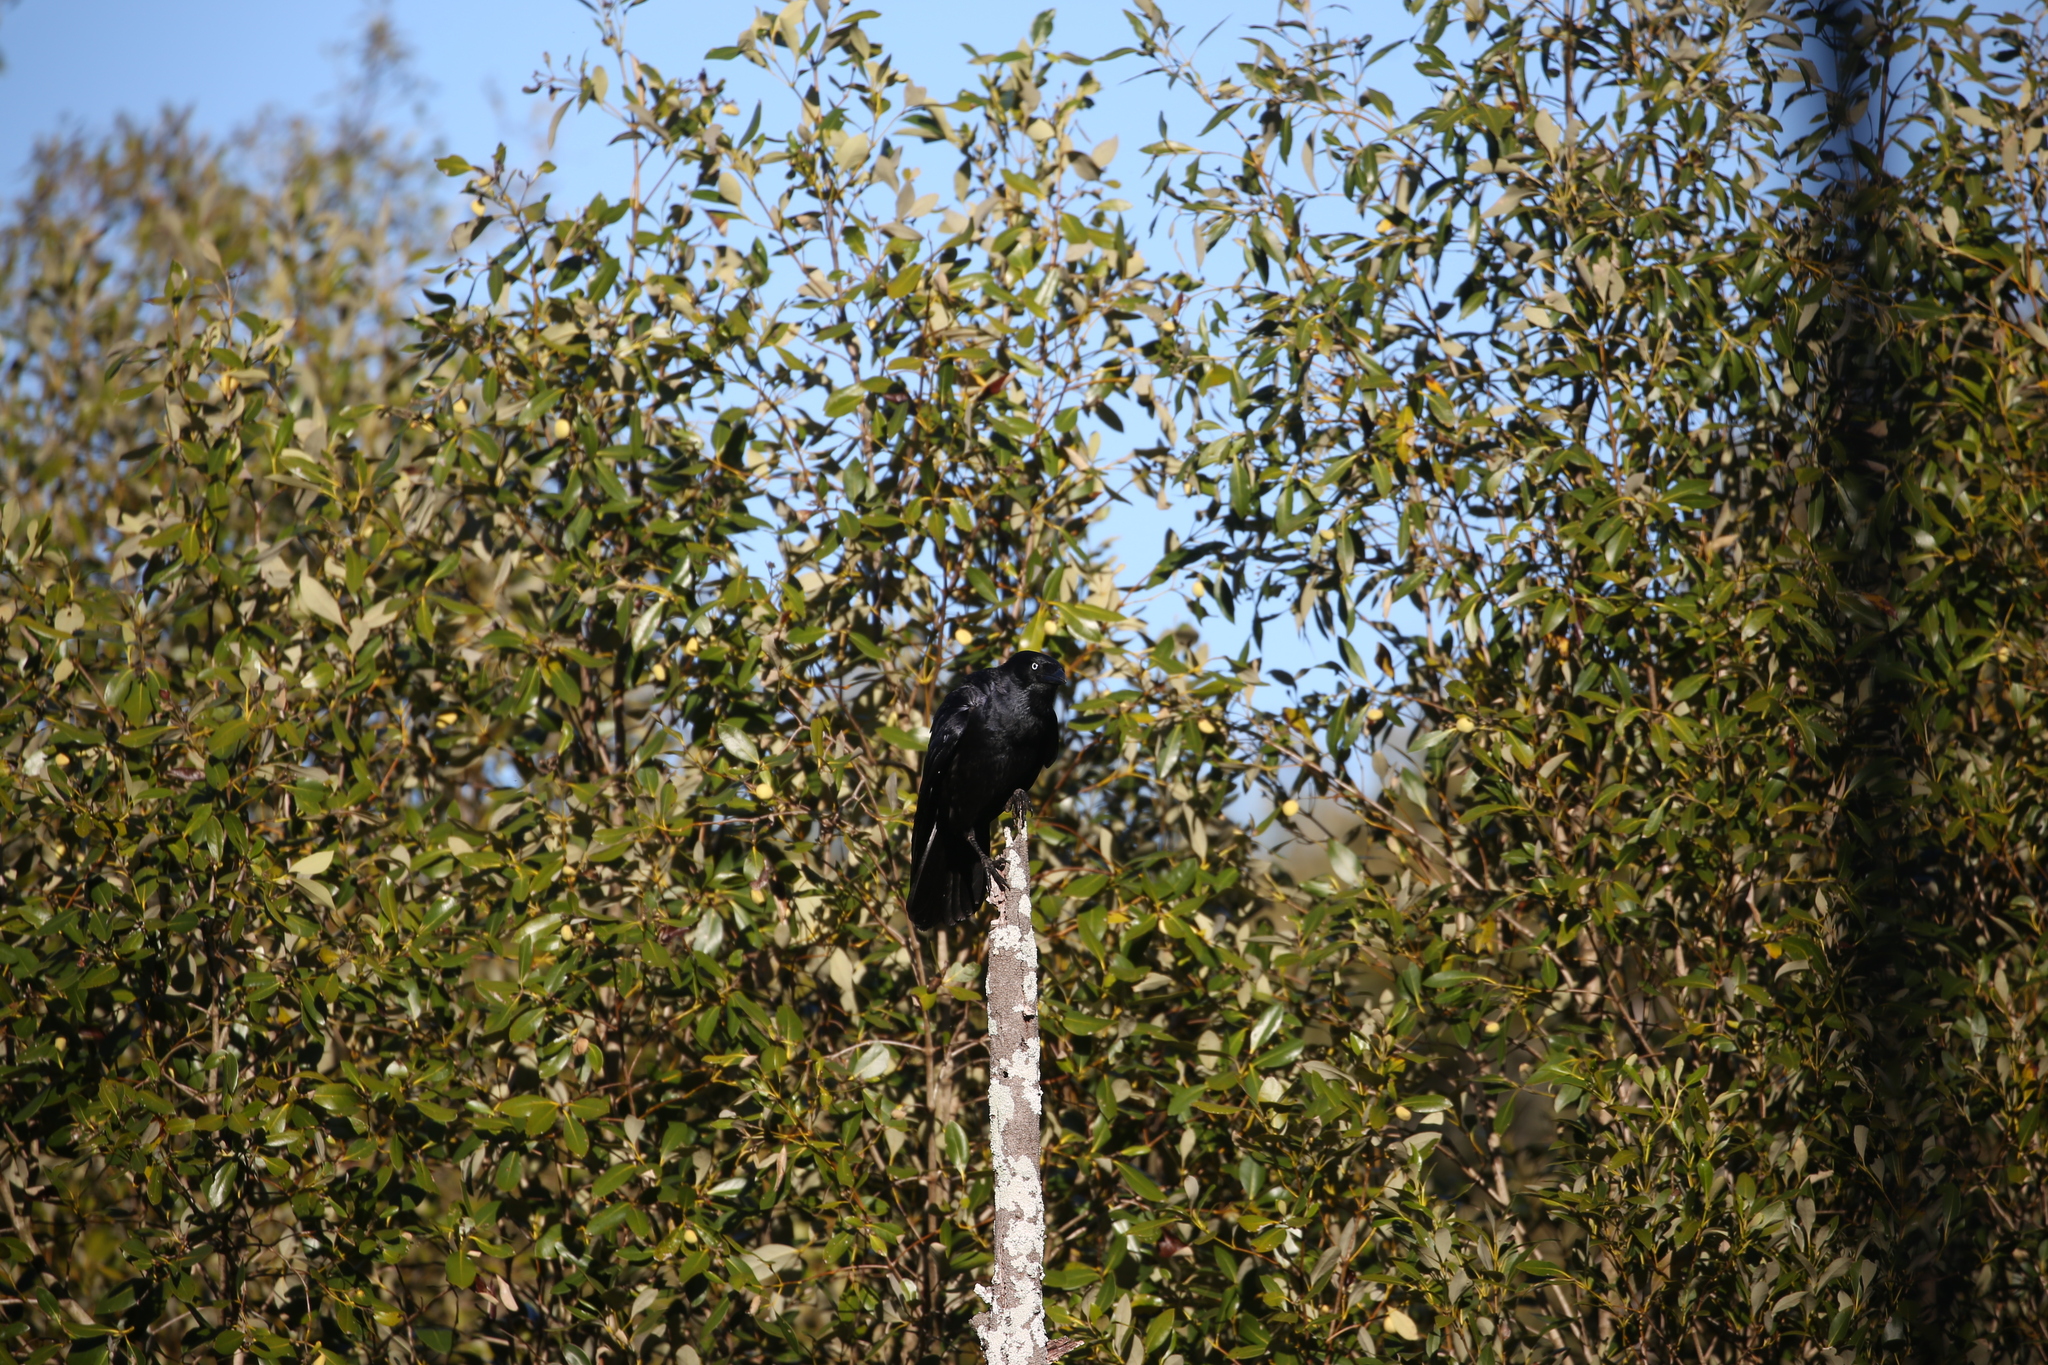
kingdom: Animalia
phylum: Chordata
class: Aves
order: Passeriformes
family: Corvidae
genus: Corvus
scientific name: Corvus orru
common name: Torresian crow
